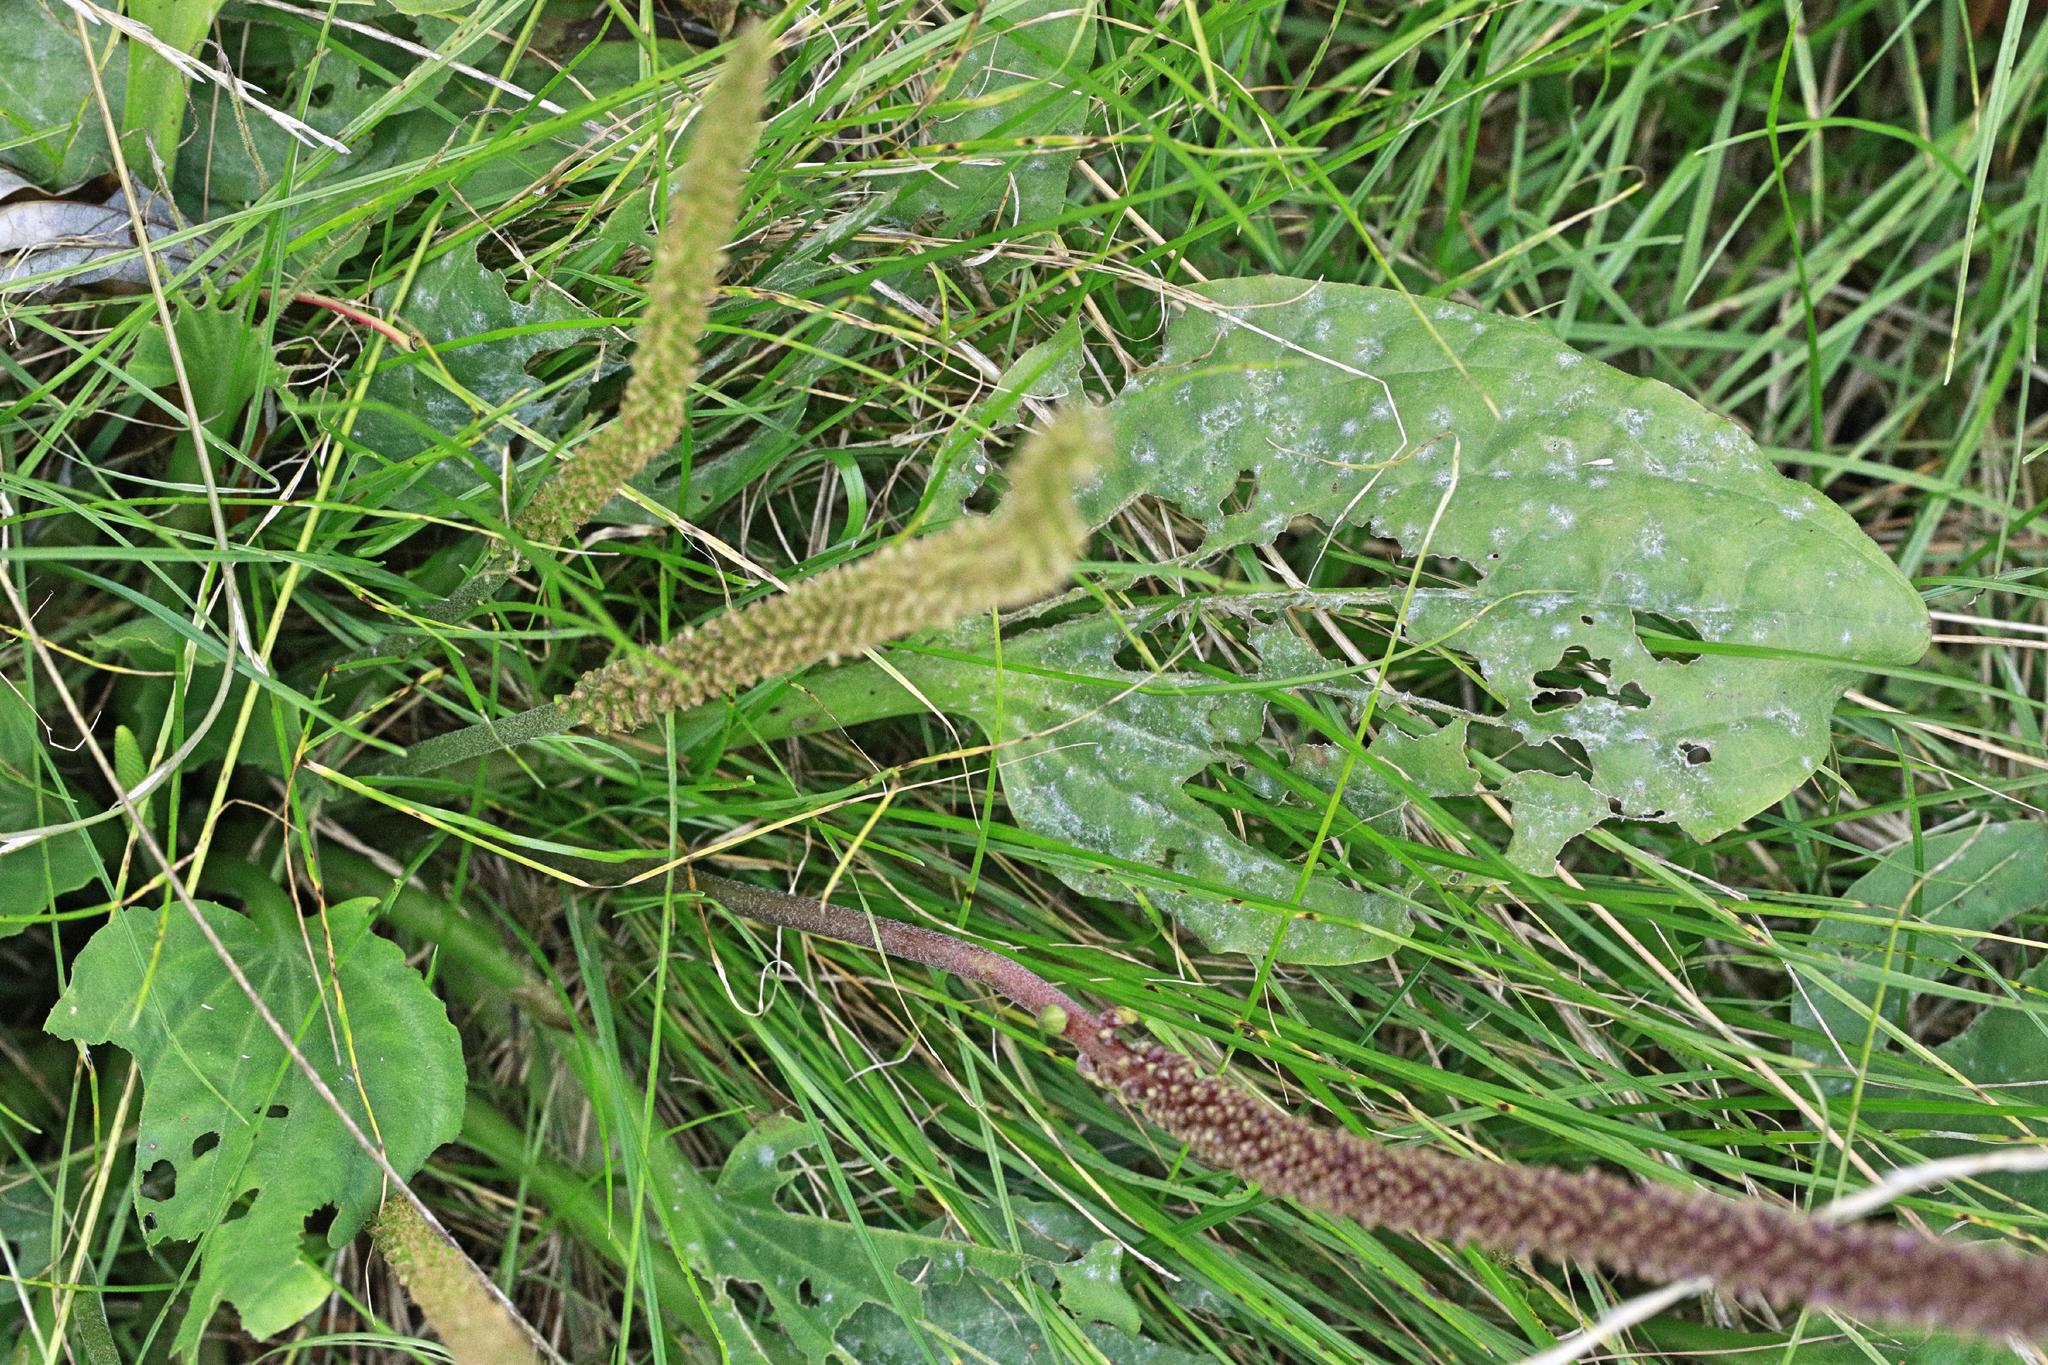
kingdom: Fungi
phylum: Ascomycota
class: Leotiomycetes
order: Helotiales
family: Erysiphaceae
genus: Golovinomyces
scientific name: Golovinomyces sordidus
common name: Plantain mildew
